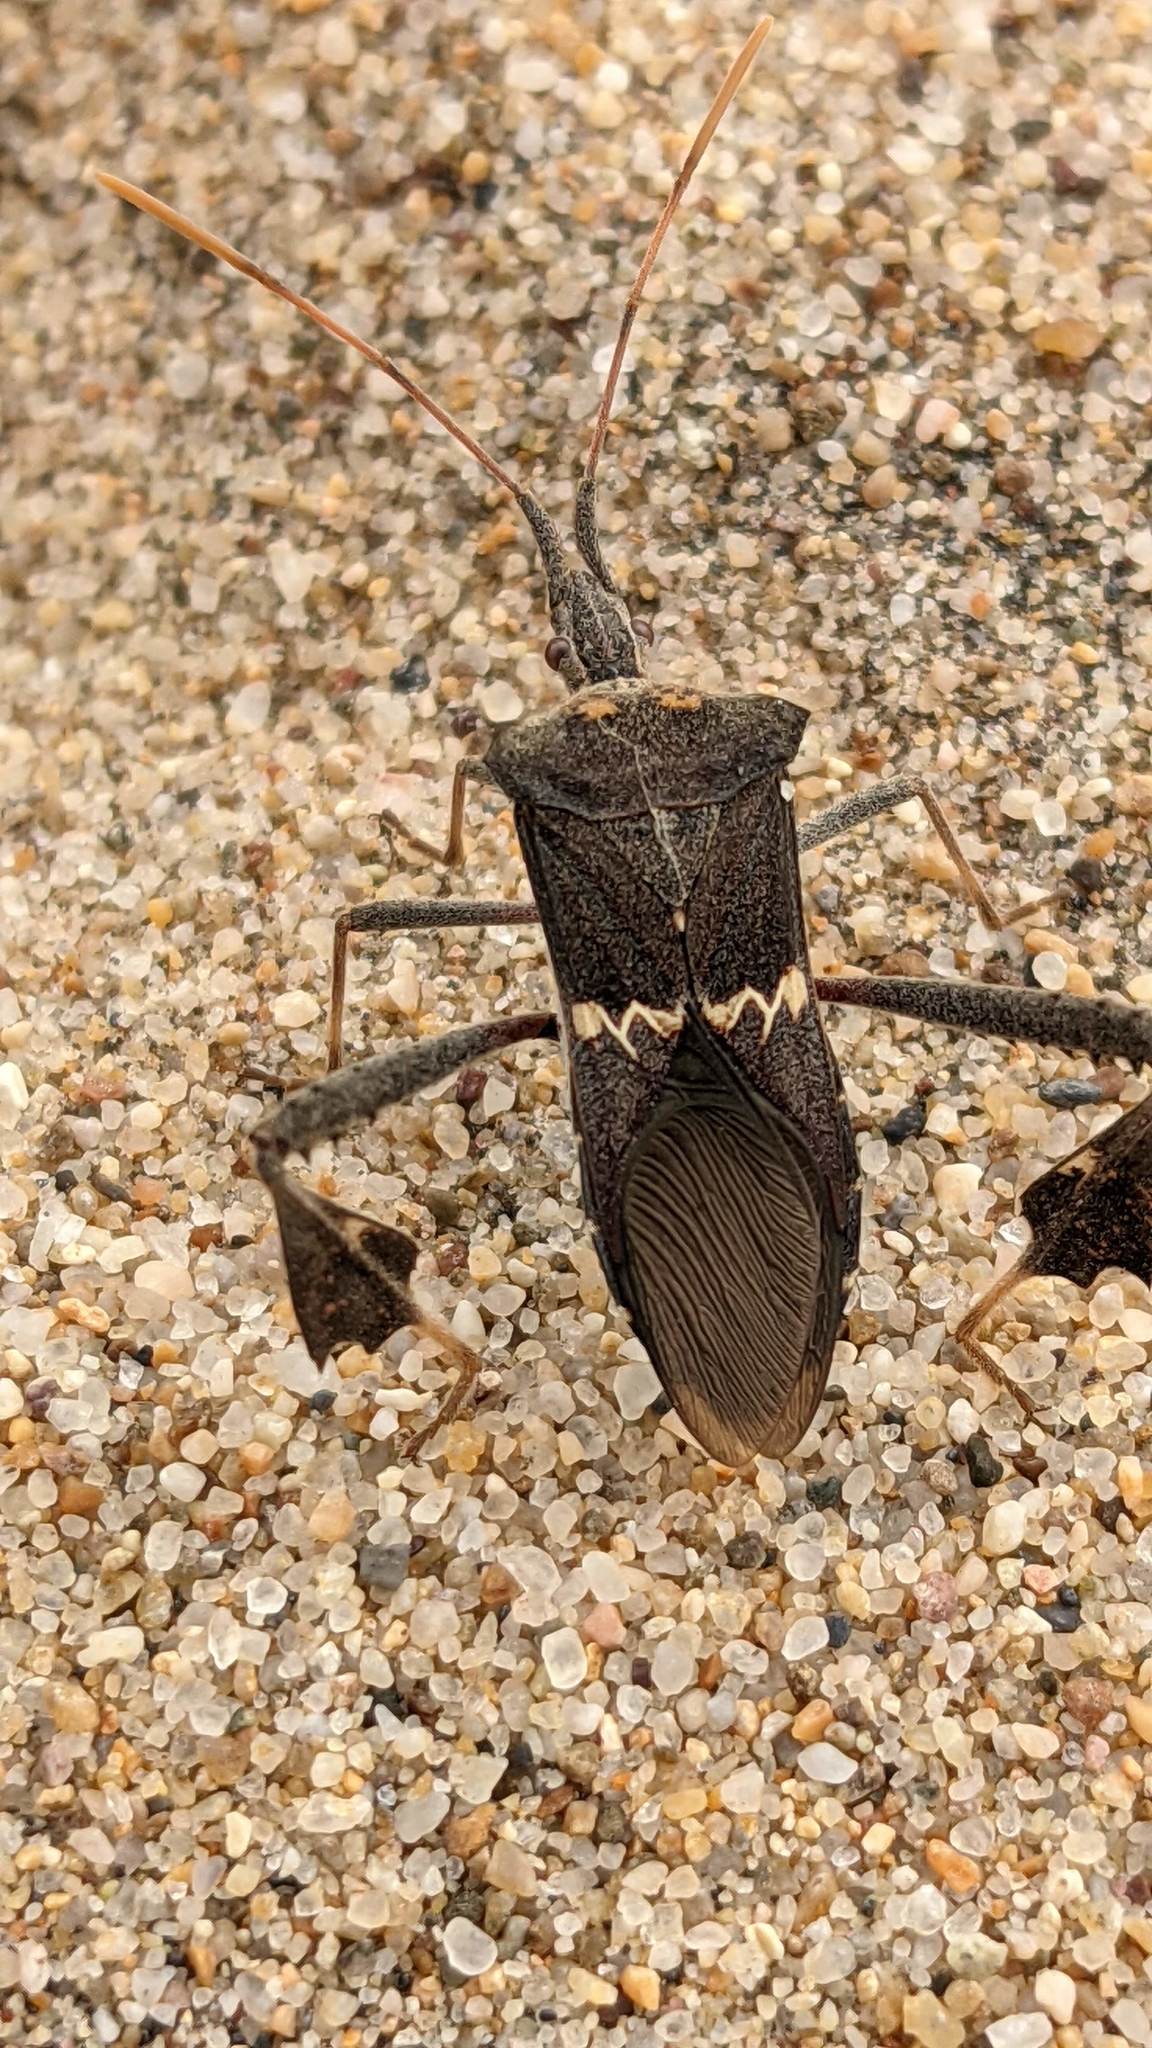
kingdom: Animalia
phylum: Arthropoda
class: Insecta
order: Hemiptera
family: Coreidae
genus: Leptoglossus
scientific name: Leptoglossus zonatus
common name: Large-legged bug
